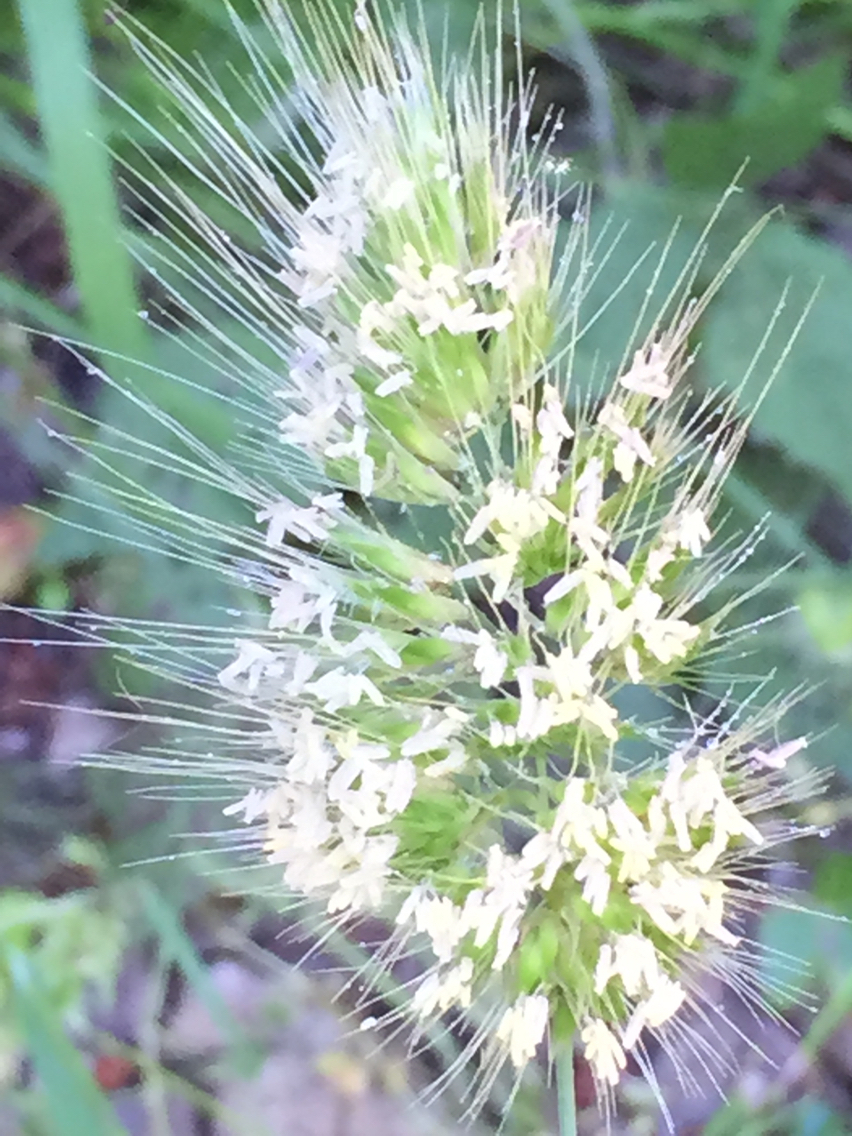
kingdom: Plantae
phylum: Tracheophyta
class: Liliopsida
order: Poales
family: Poaceae
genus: Cynosurus
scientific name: Cynosurus echinatus
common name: Rough dog's-tail
